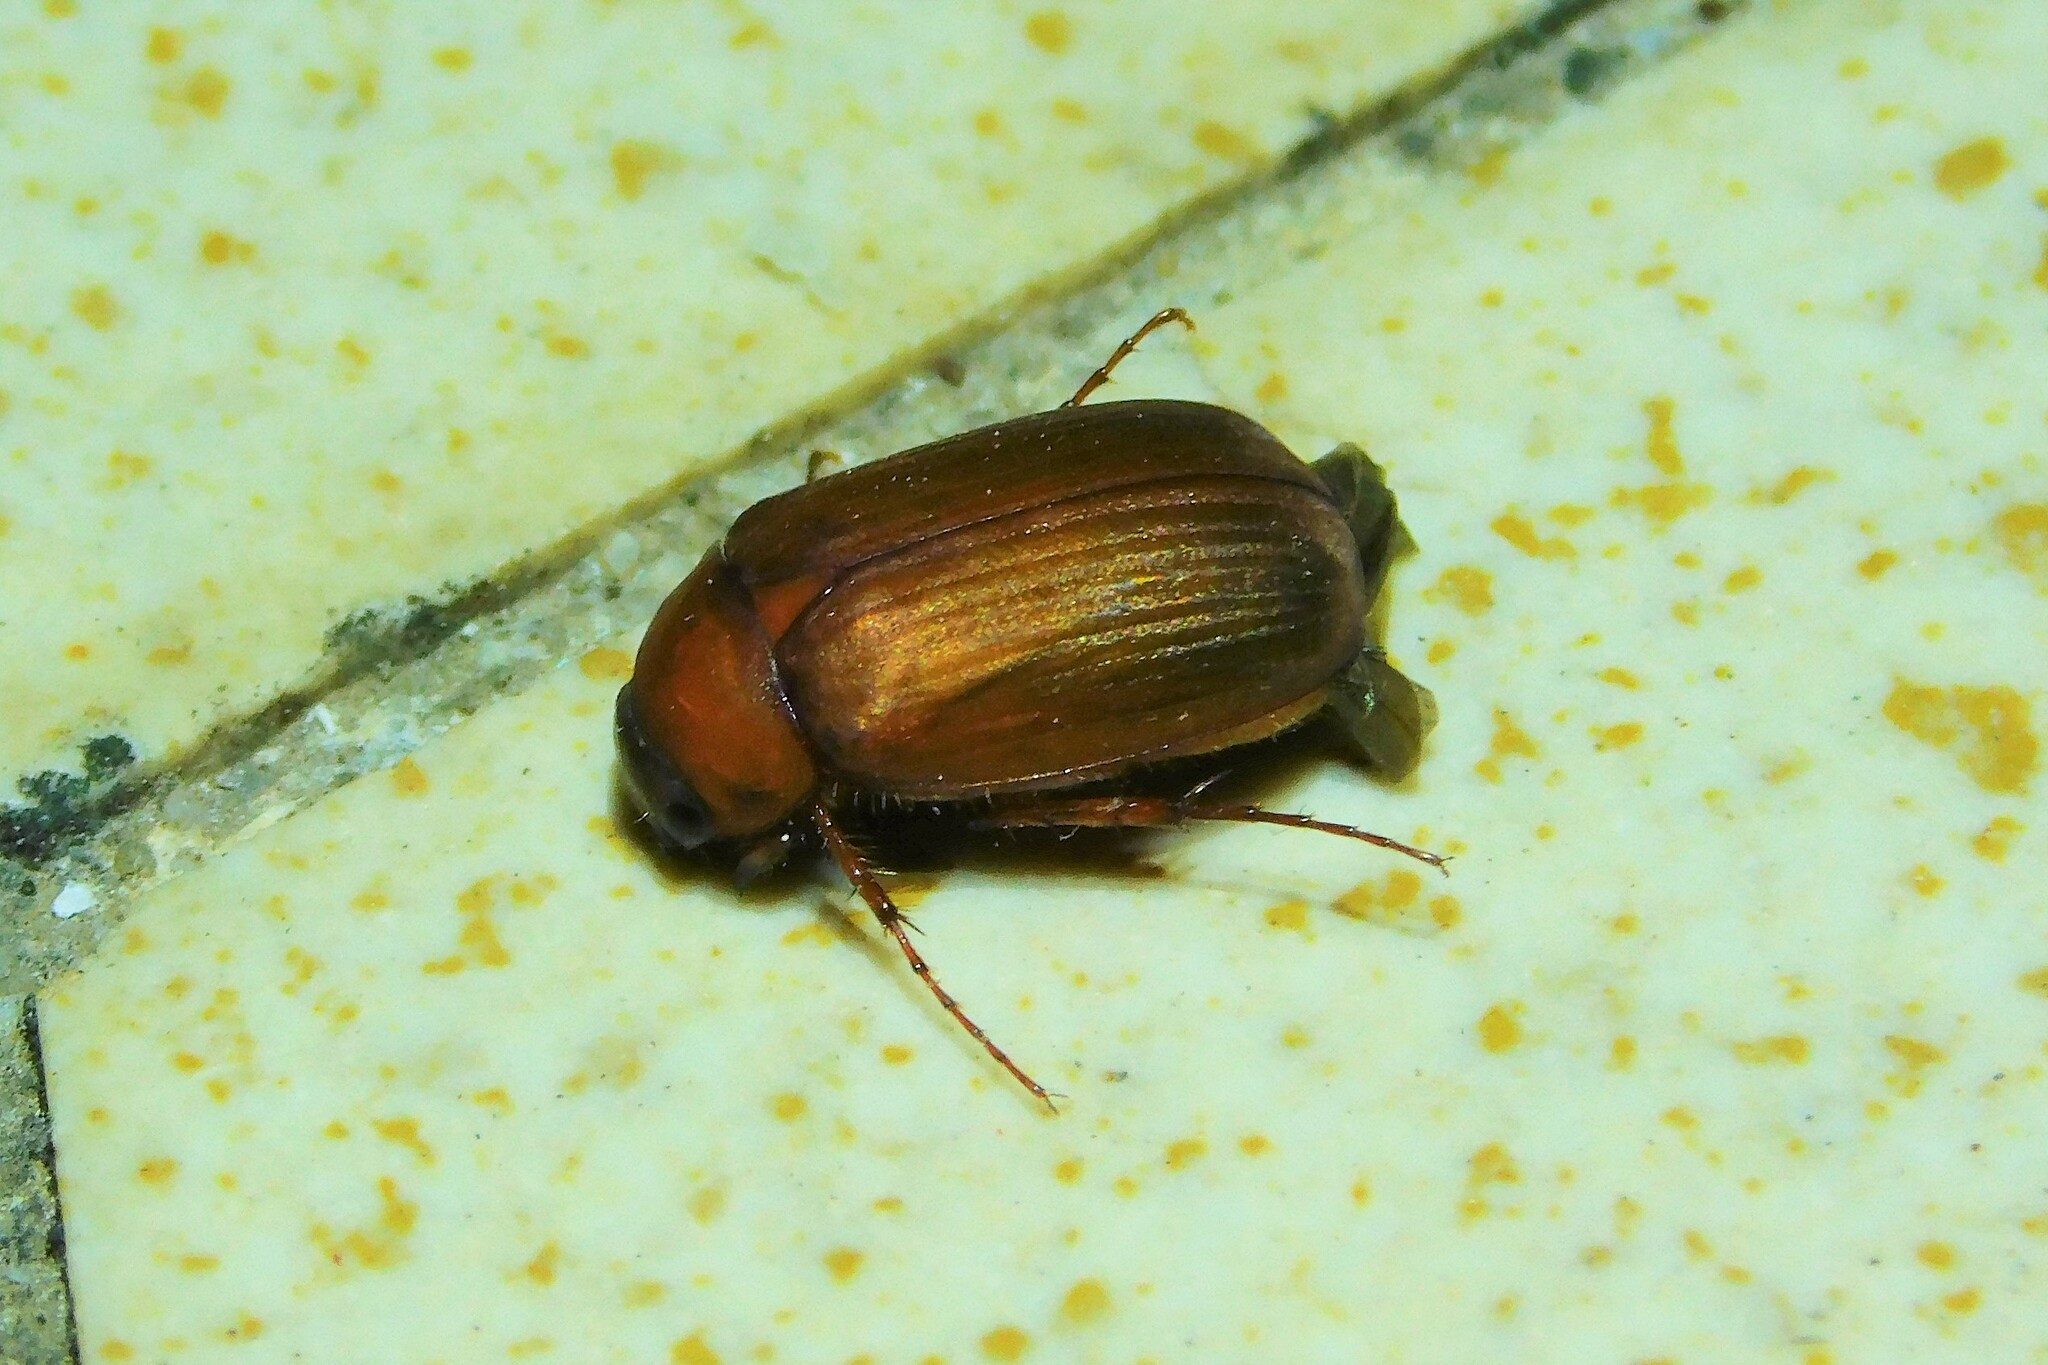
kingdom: Animalia
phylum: Arthropoda
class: Insecta
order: Coleoptera
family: Scarabaeidae
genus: Serica
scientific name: Serica brunnea
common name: Brown chafer
